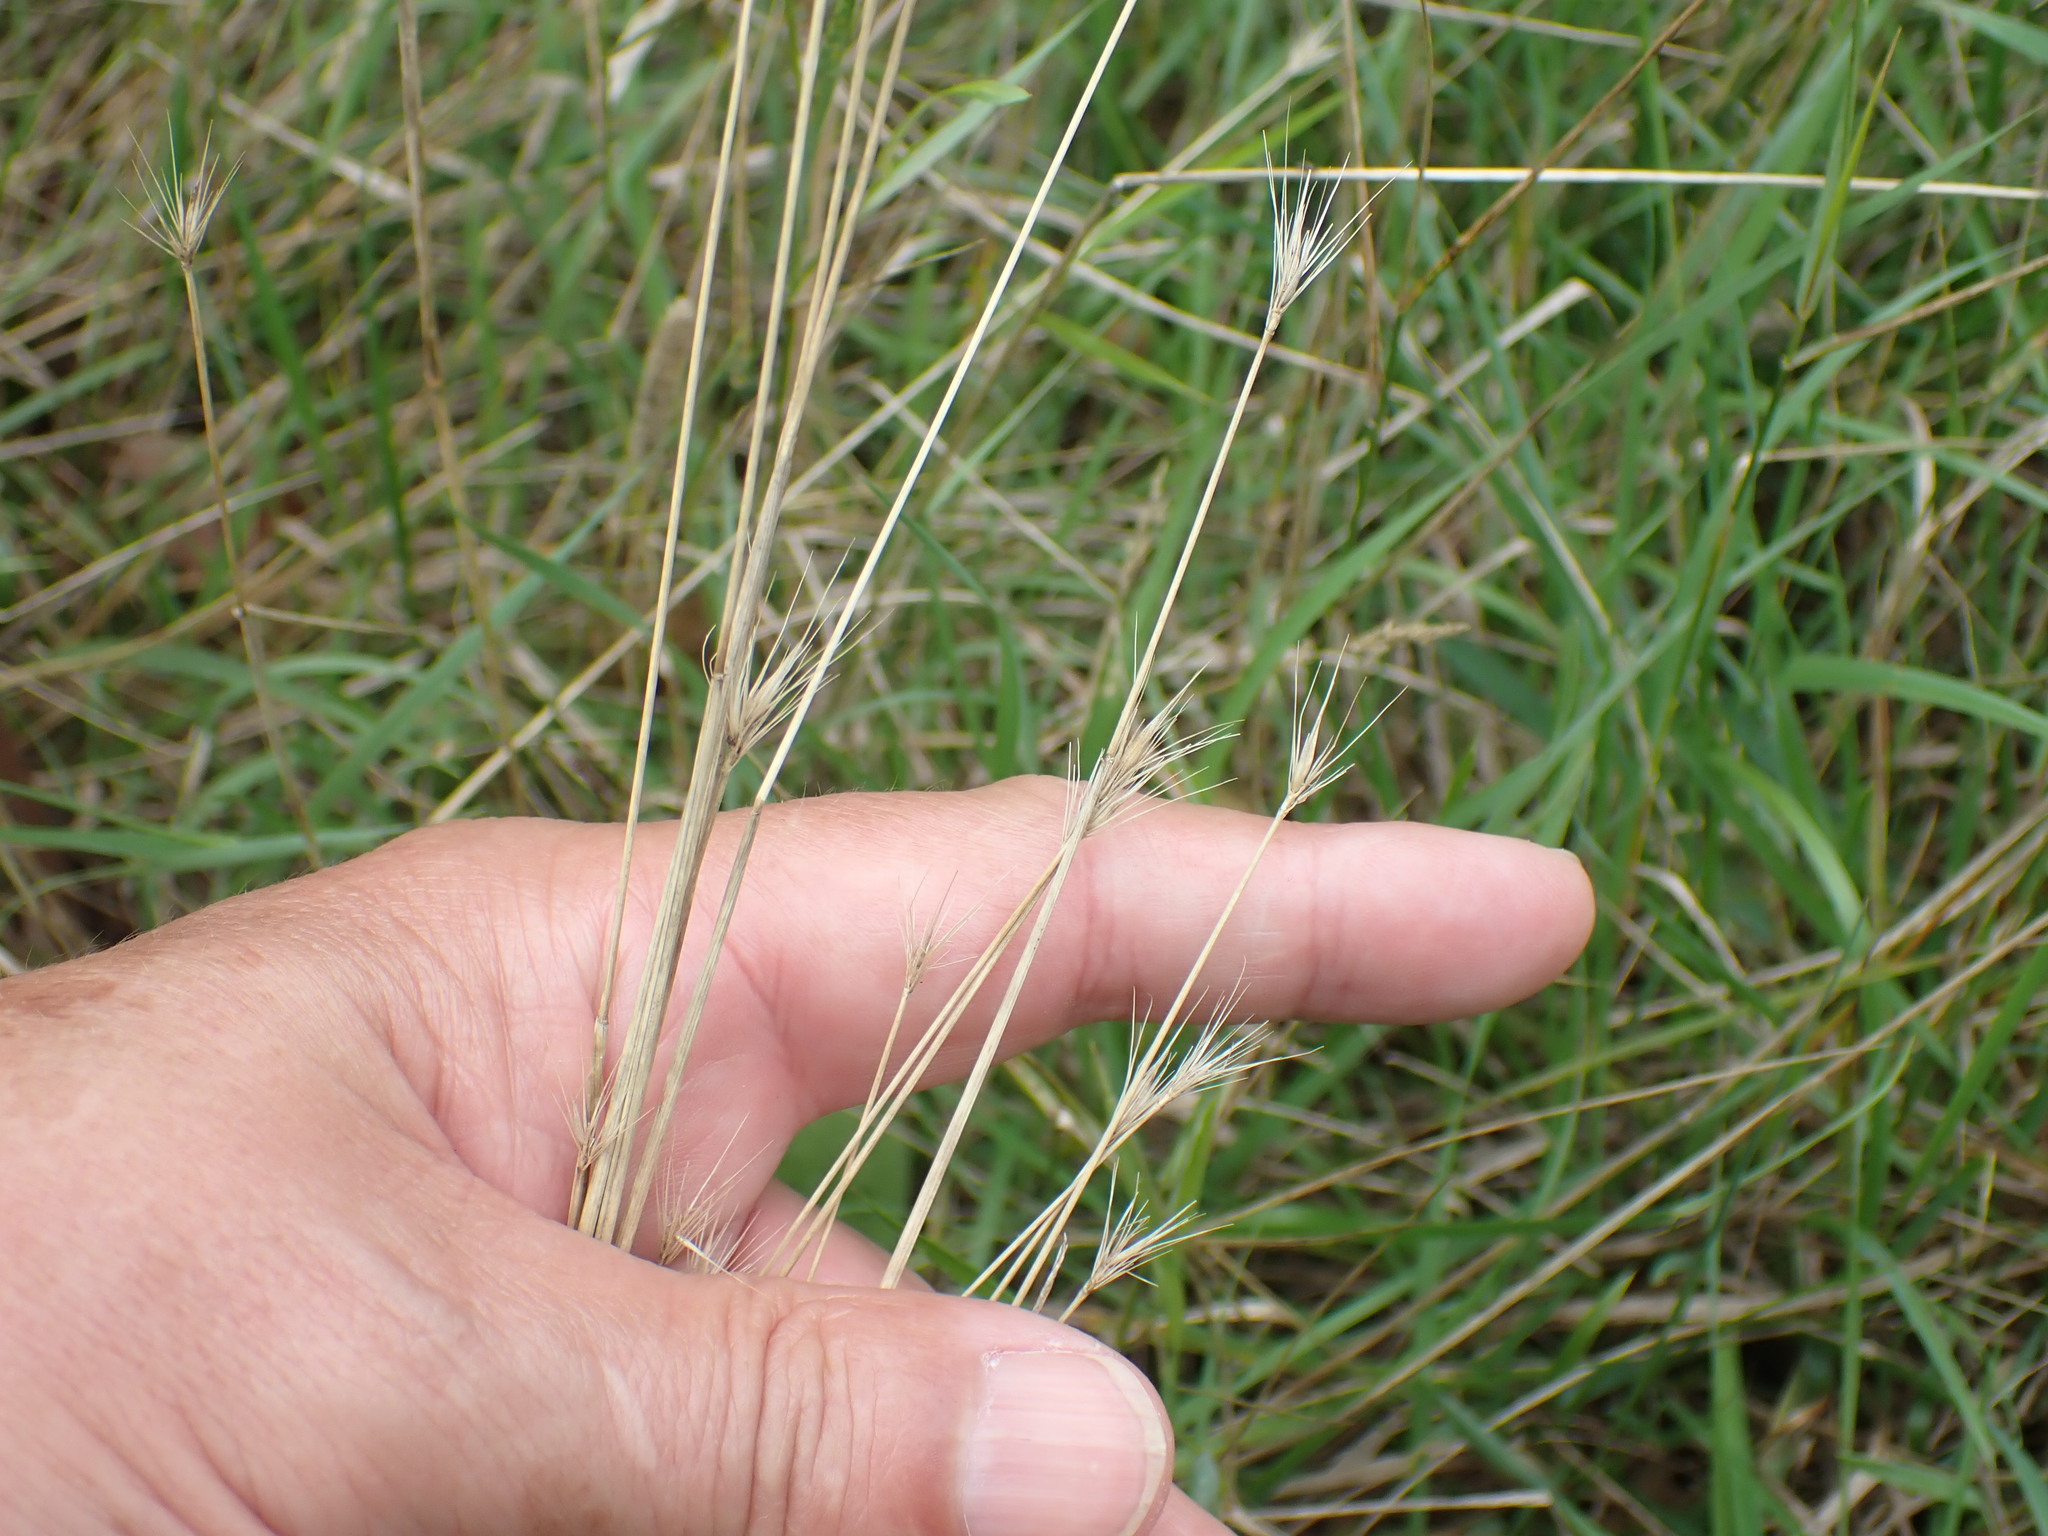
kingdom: Plantae
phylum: Tracheophyta
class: Liliopsida
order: Poales
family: Poaceae
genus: Hordeum
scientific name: Hordeum secalinum
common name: Meadow barley
